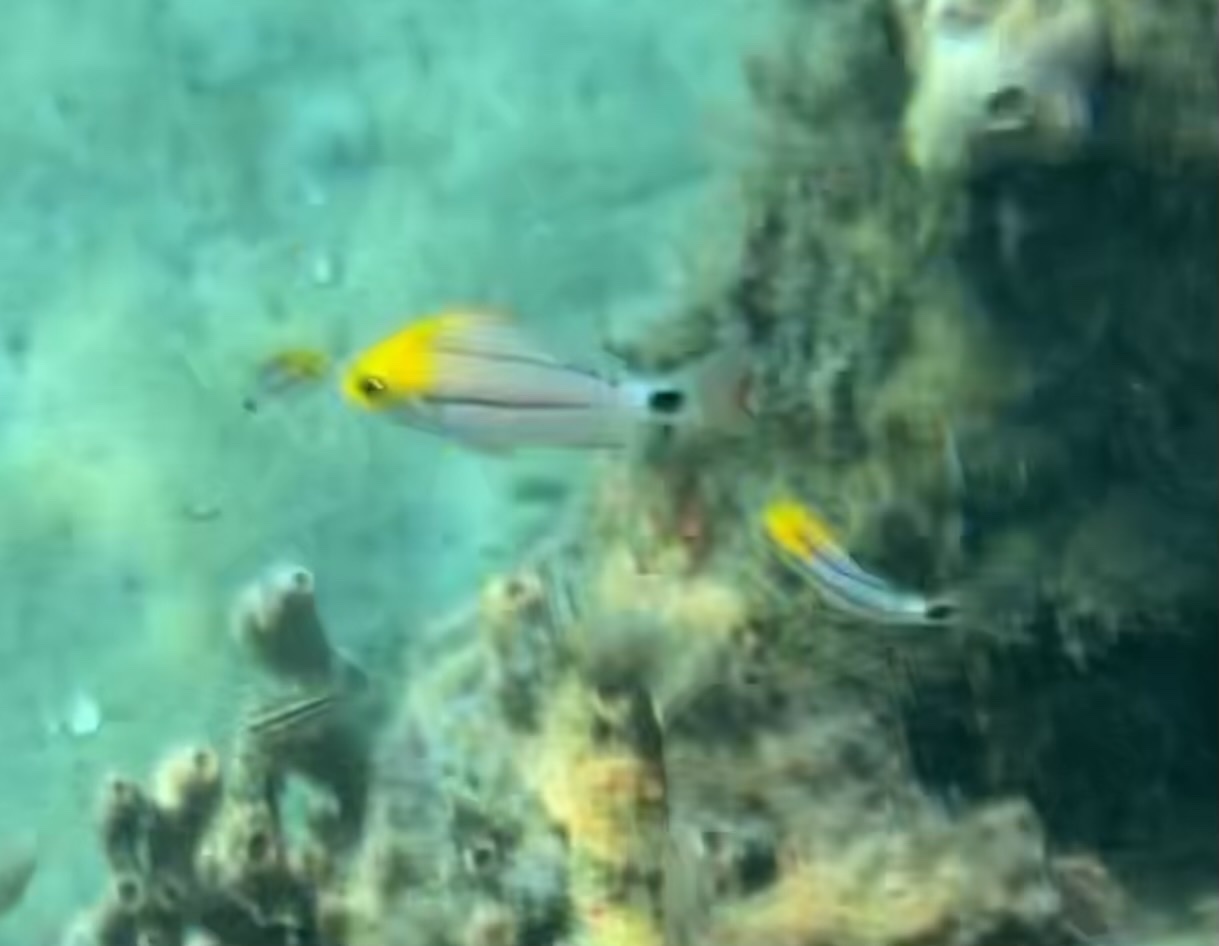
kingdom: Animalia
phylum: Chordata
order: Perciformes
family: Haemulidae
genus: Anisotremus
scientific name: Anisotremus virginicus
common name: Porkfish
